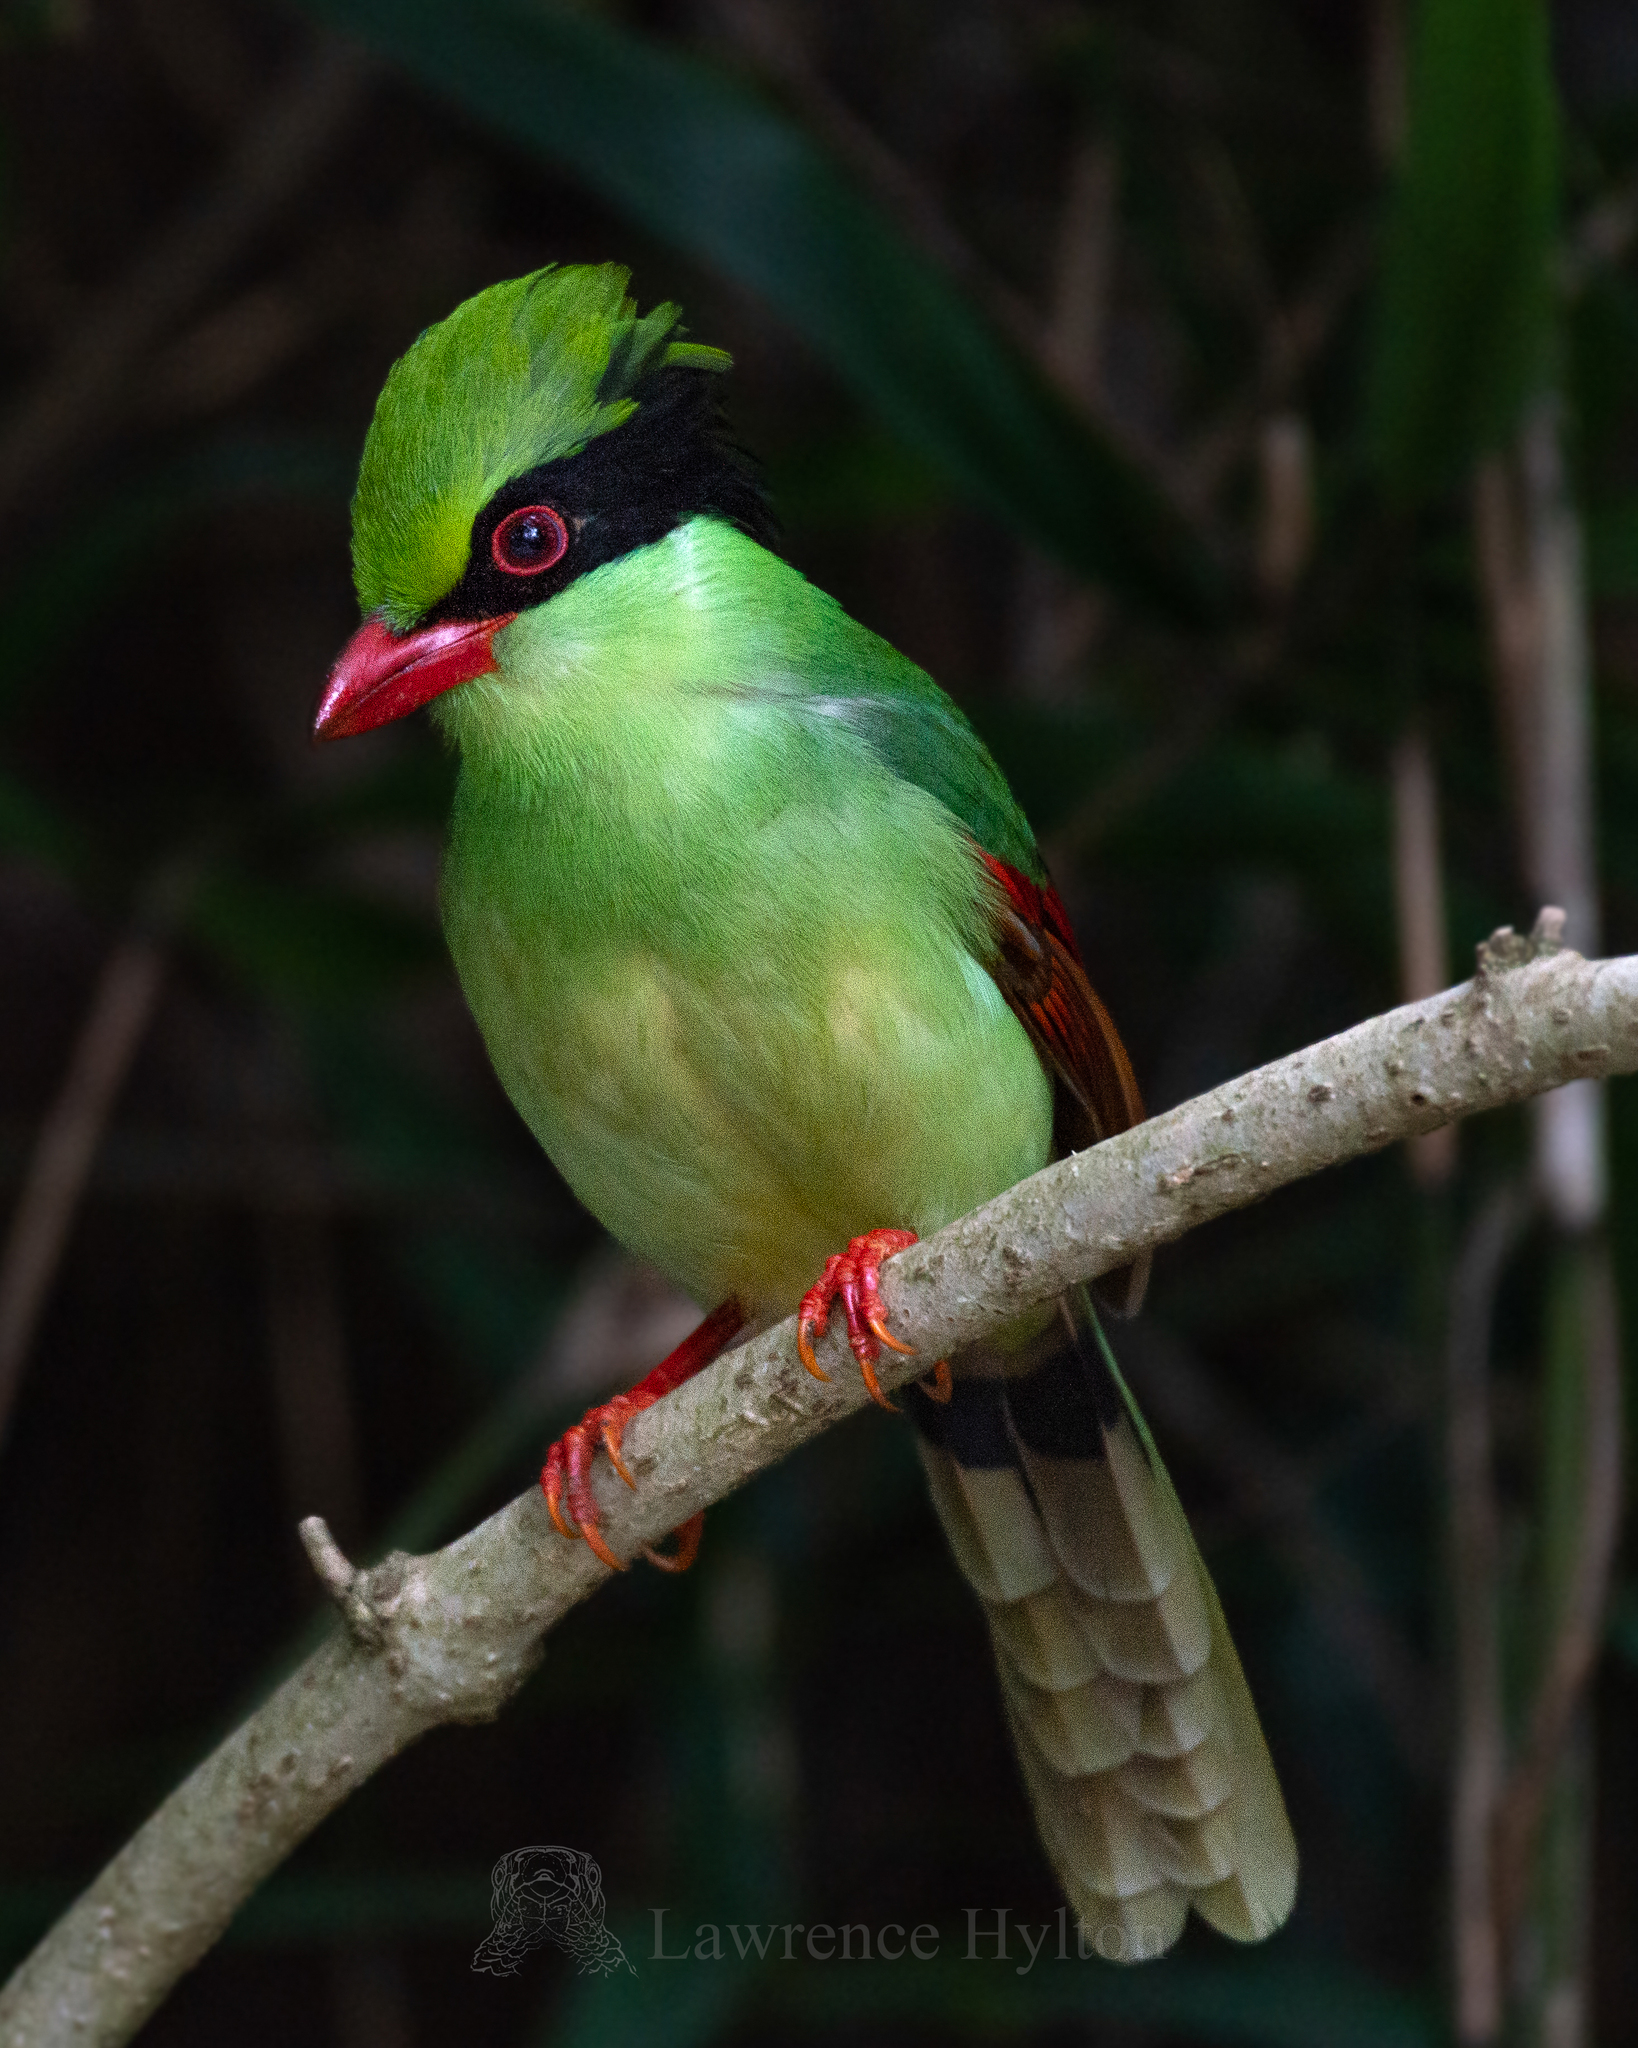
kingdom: Animalia
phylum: Chordata
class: Aves
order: Passeriformes
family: Corvidae
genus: Cissa
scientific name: Cissa hypoleuca
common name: Indochinese green magpie
